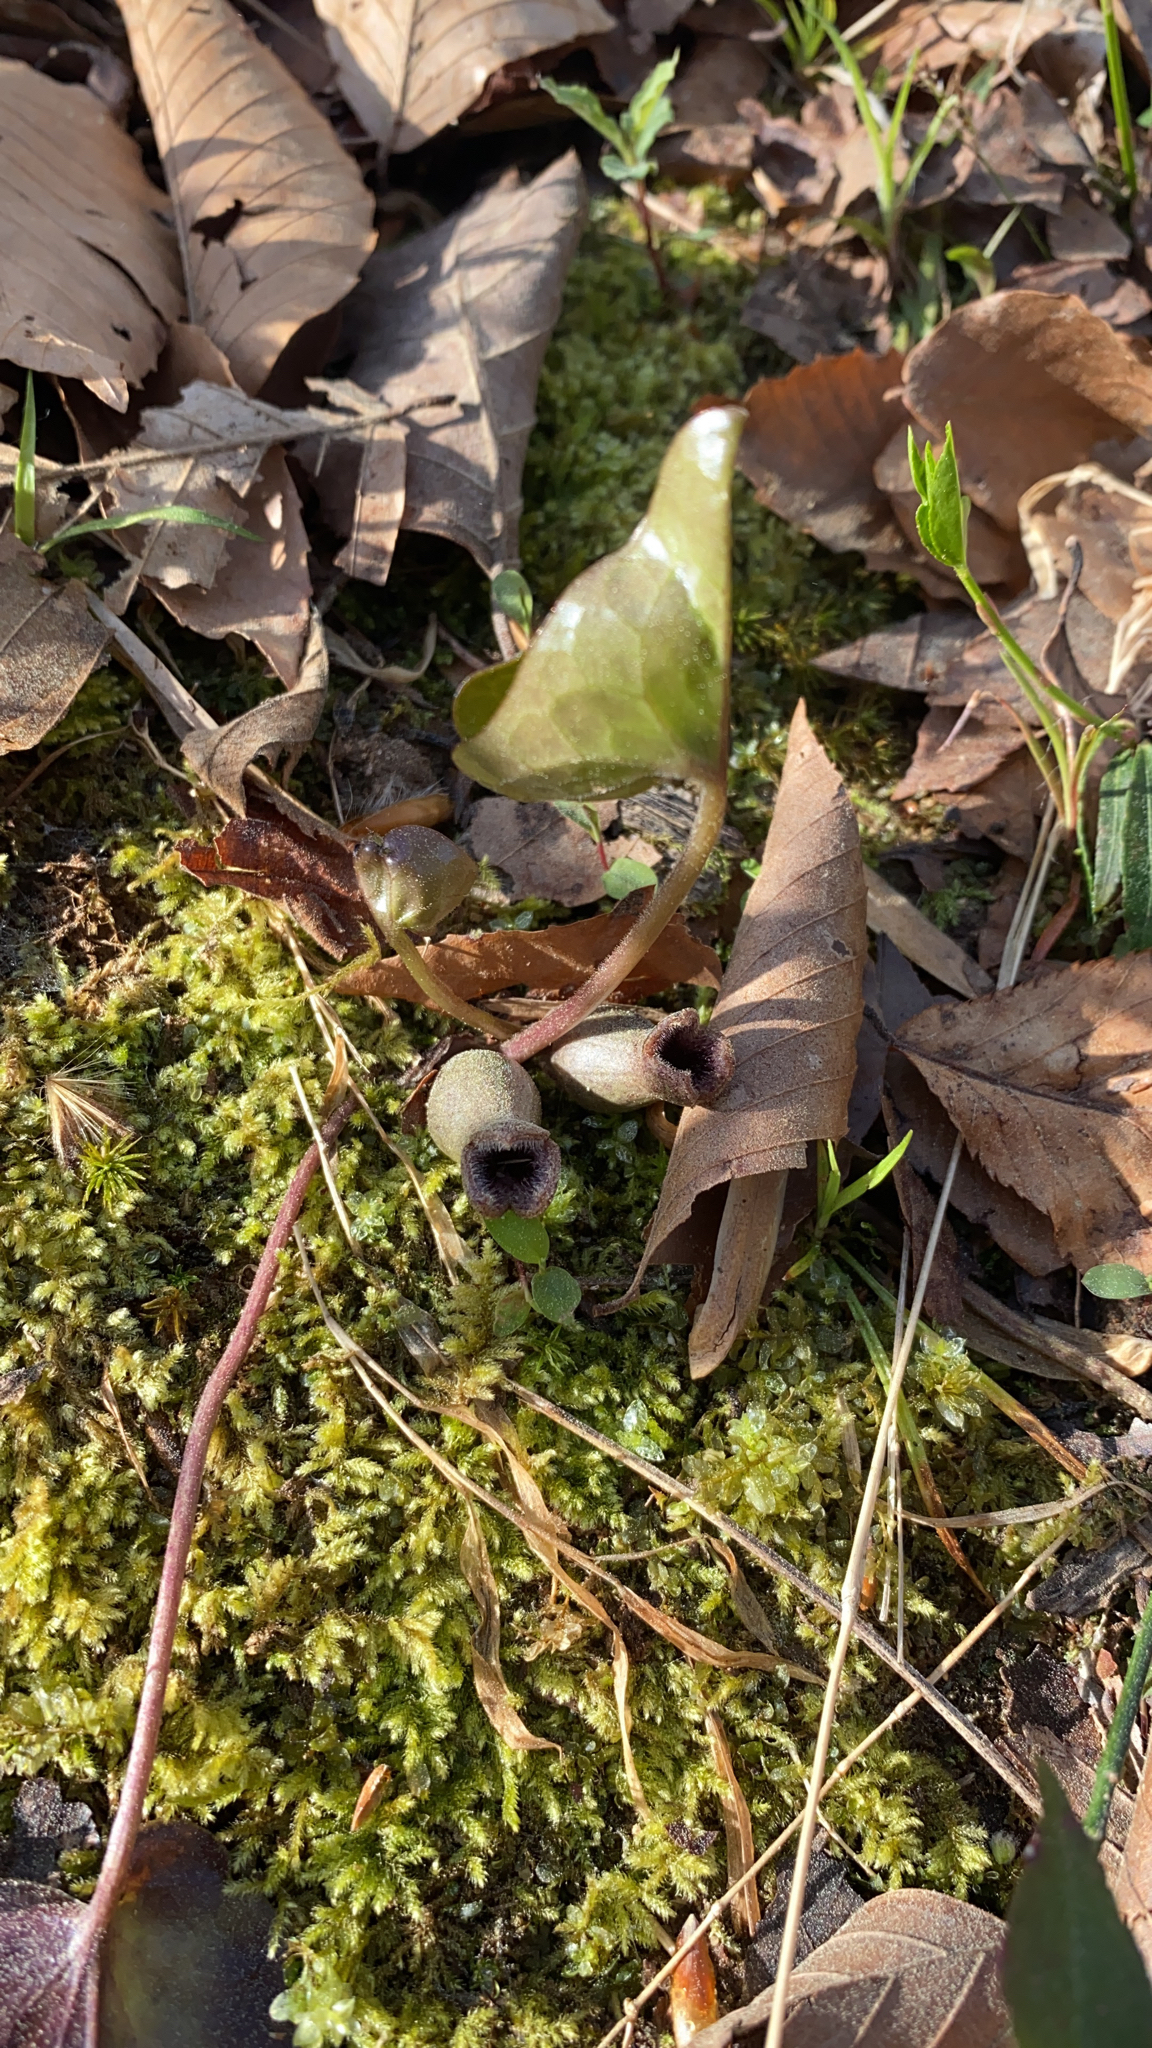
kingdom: Plantae
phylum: Tracheophyta
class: Magnoliopsida
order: Piperales
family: Aristolochiaceae
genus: Hexastylis
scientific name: Hexastylis arifolia
